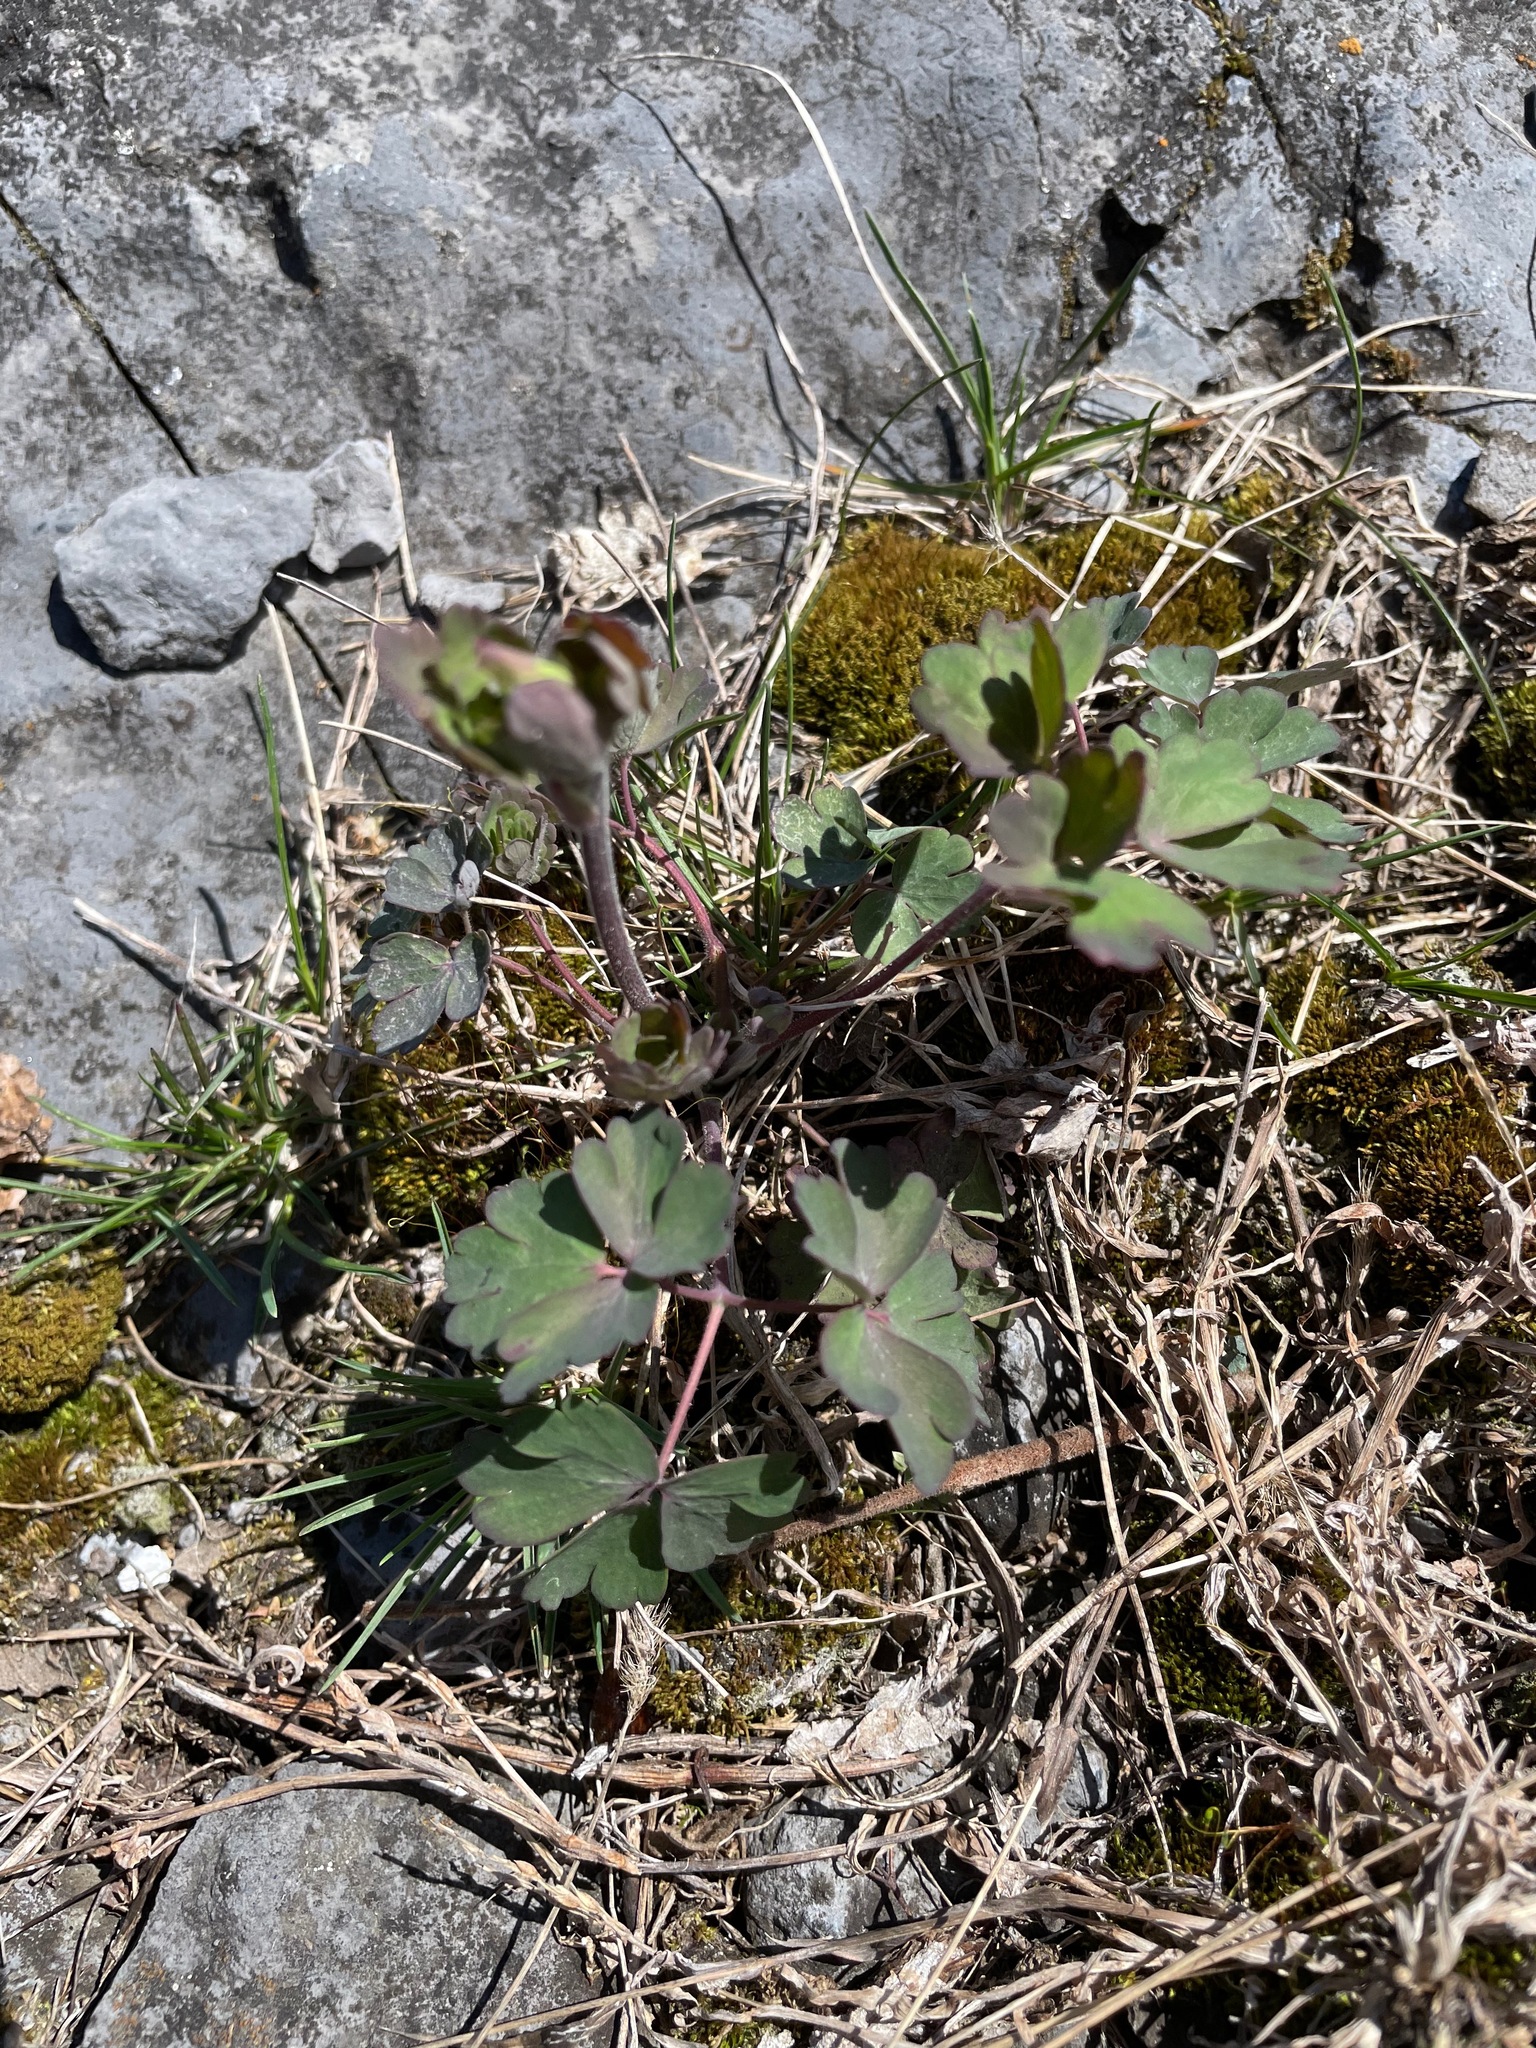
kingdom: Plantae
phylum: Tracheophyta
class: Magnoliopsida
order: Ranunculales
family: Ranunculaceae
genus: Aquilegia
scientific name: Aquilegia canadensis
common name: American columbine
